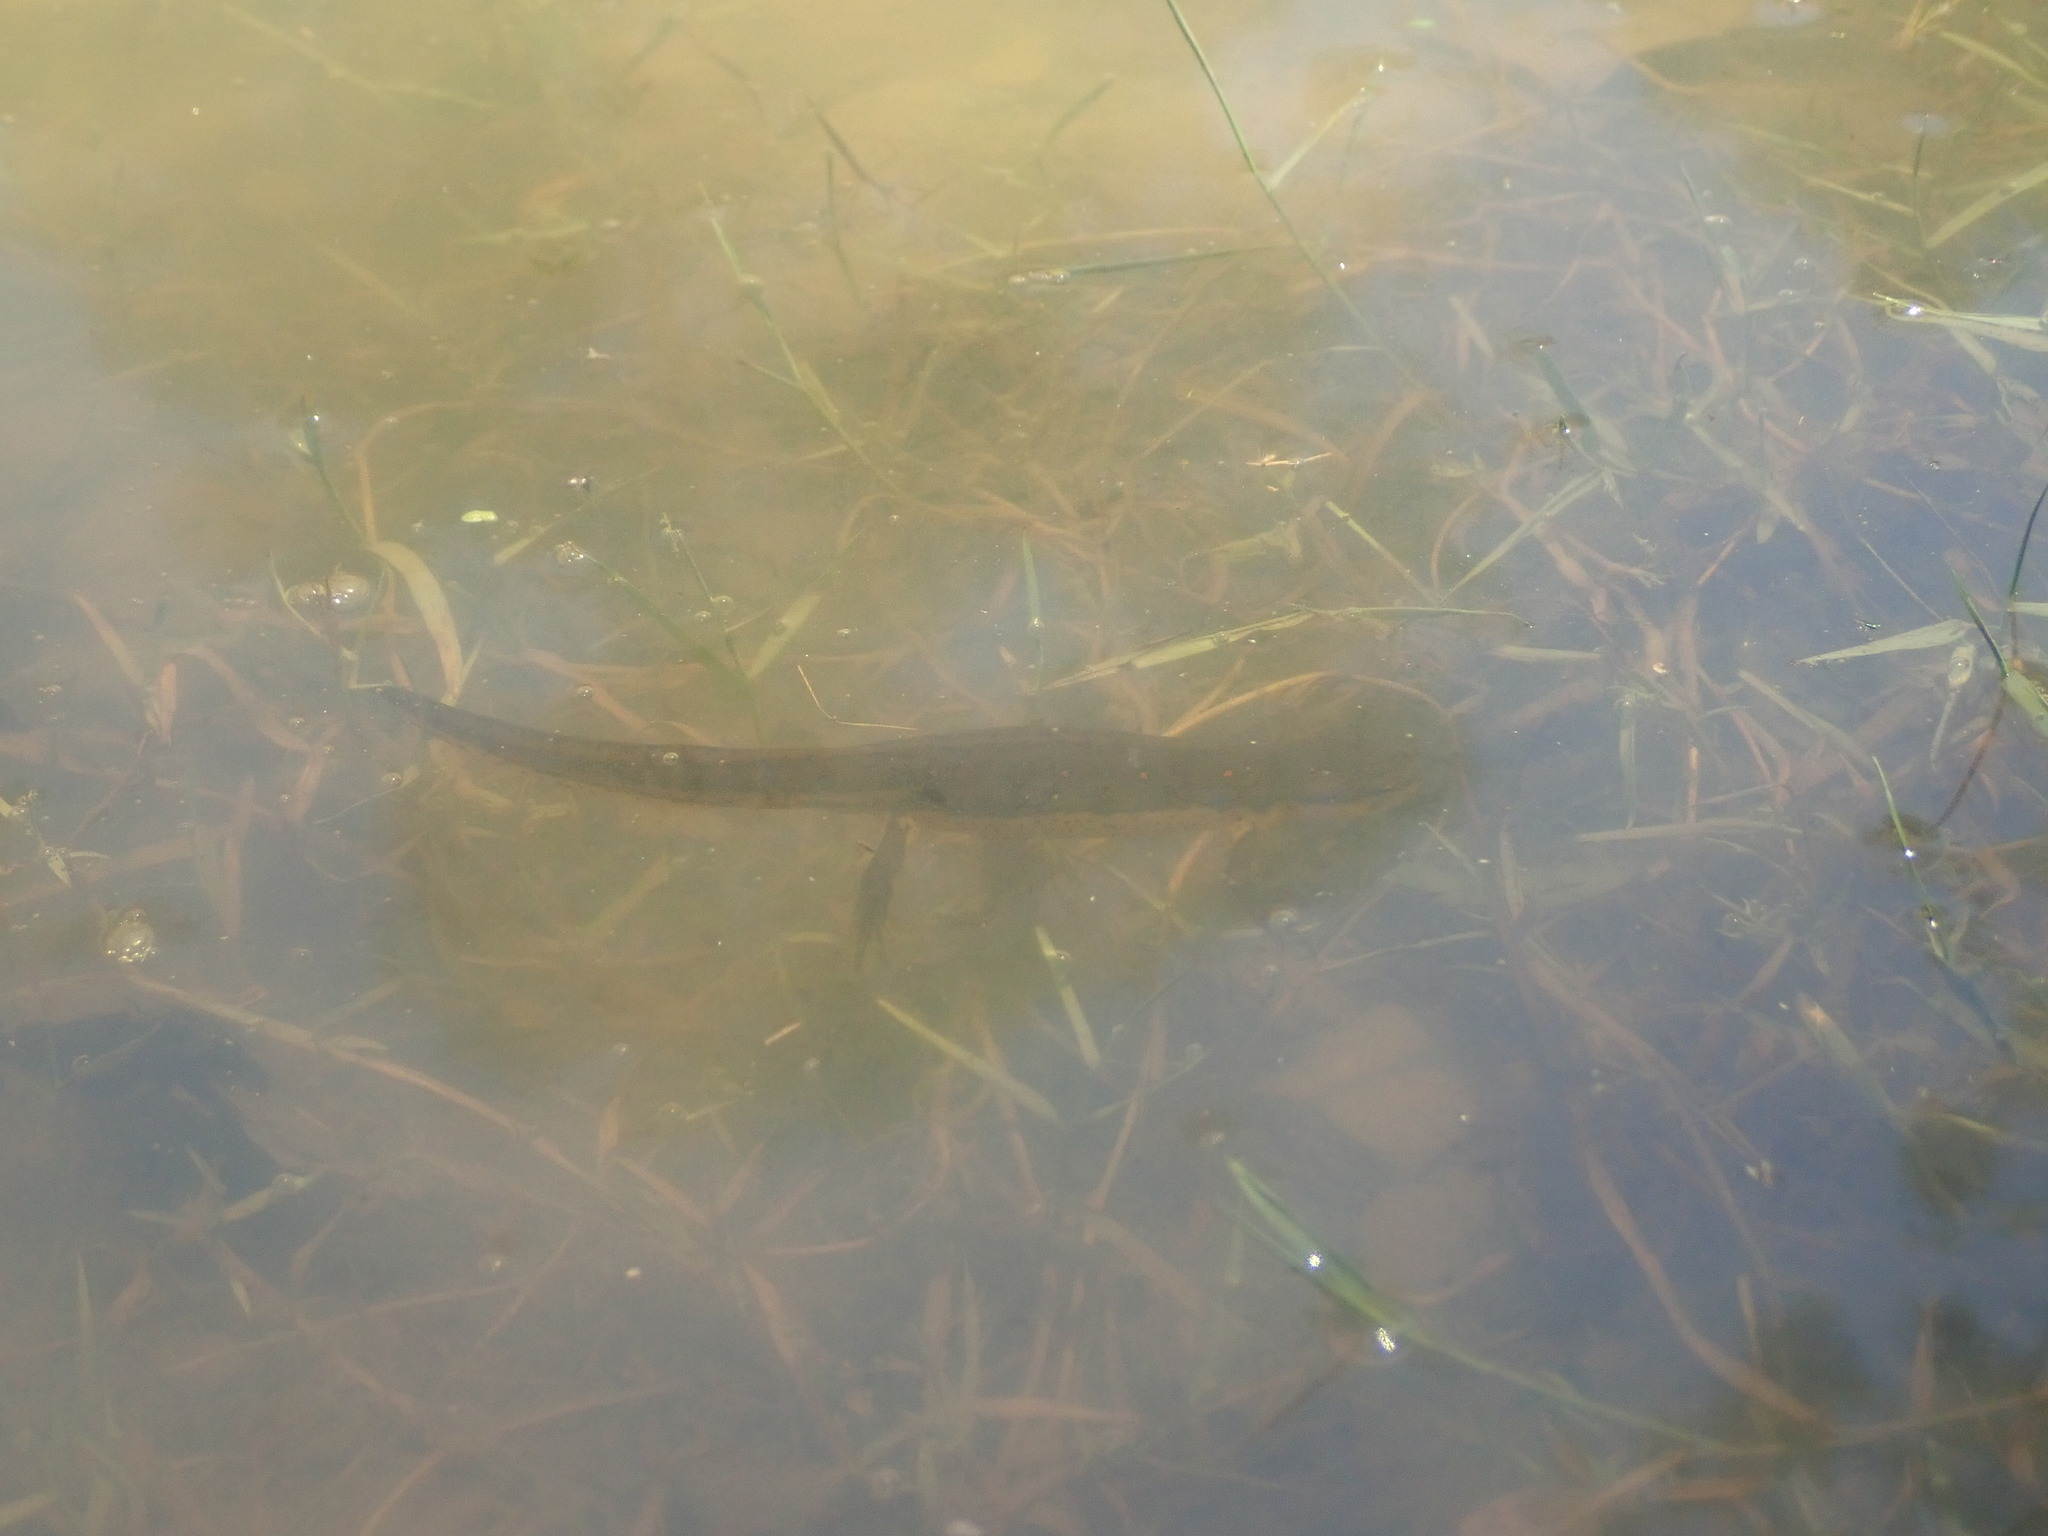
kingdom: Animalia
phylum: Chordata
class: Amphibia
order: Caudata
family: Salamandridae
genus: Notophthalmus
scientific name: Notophthalmus viridescens
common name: Eastern newt
